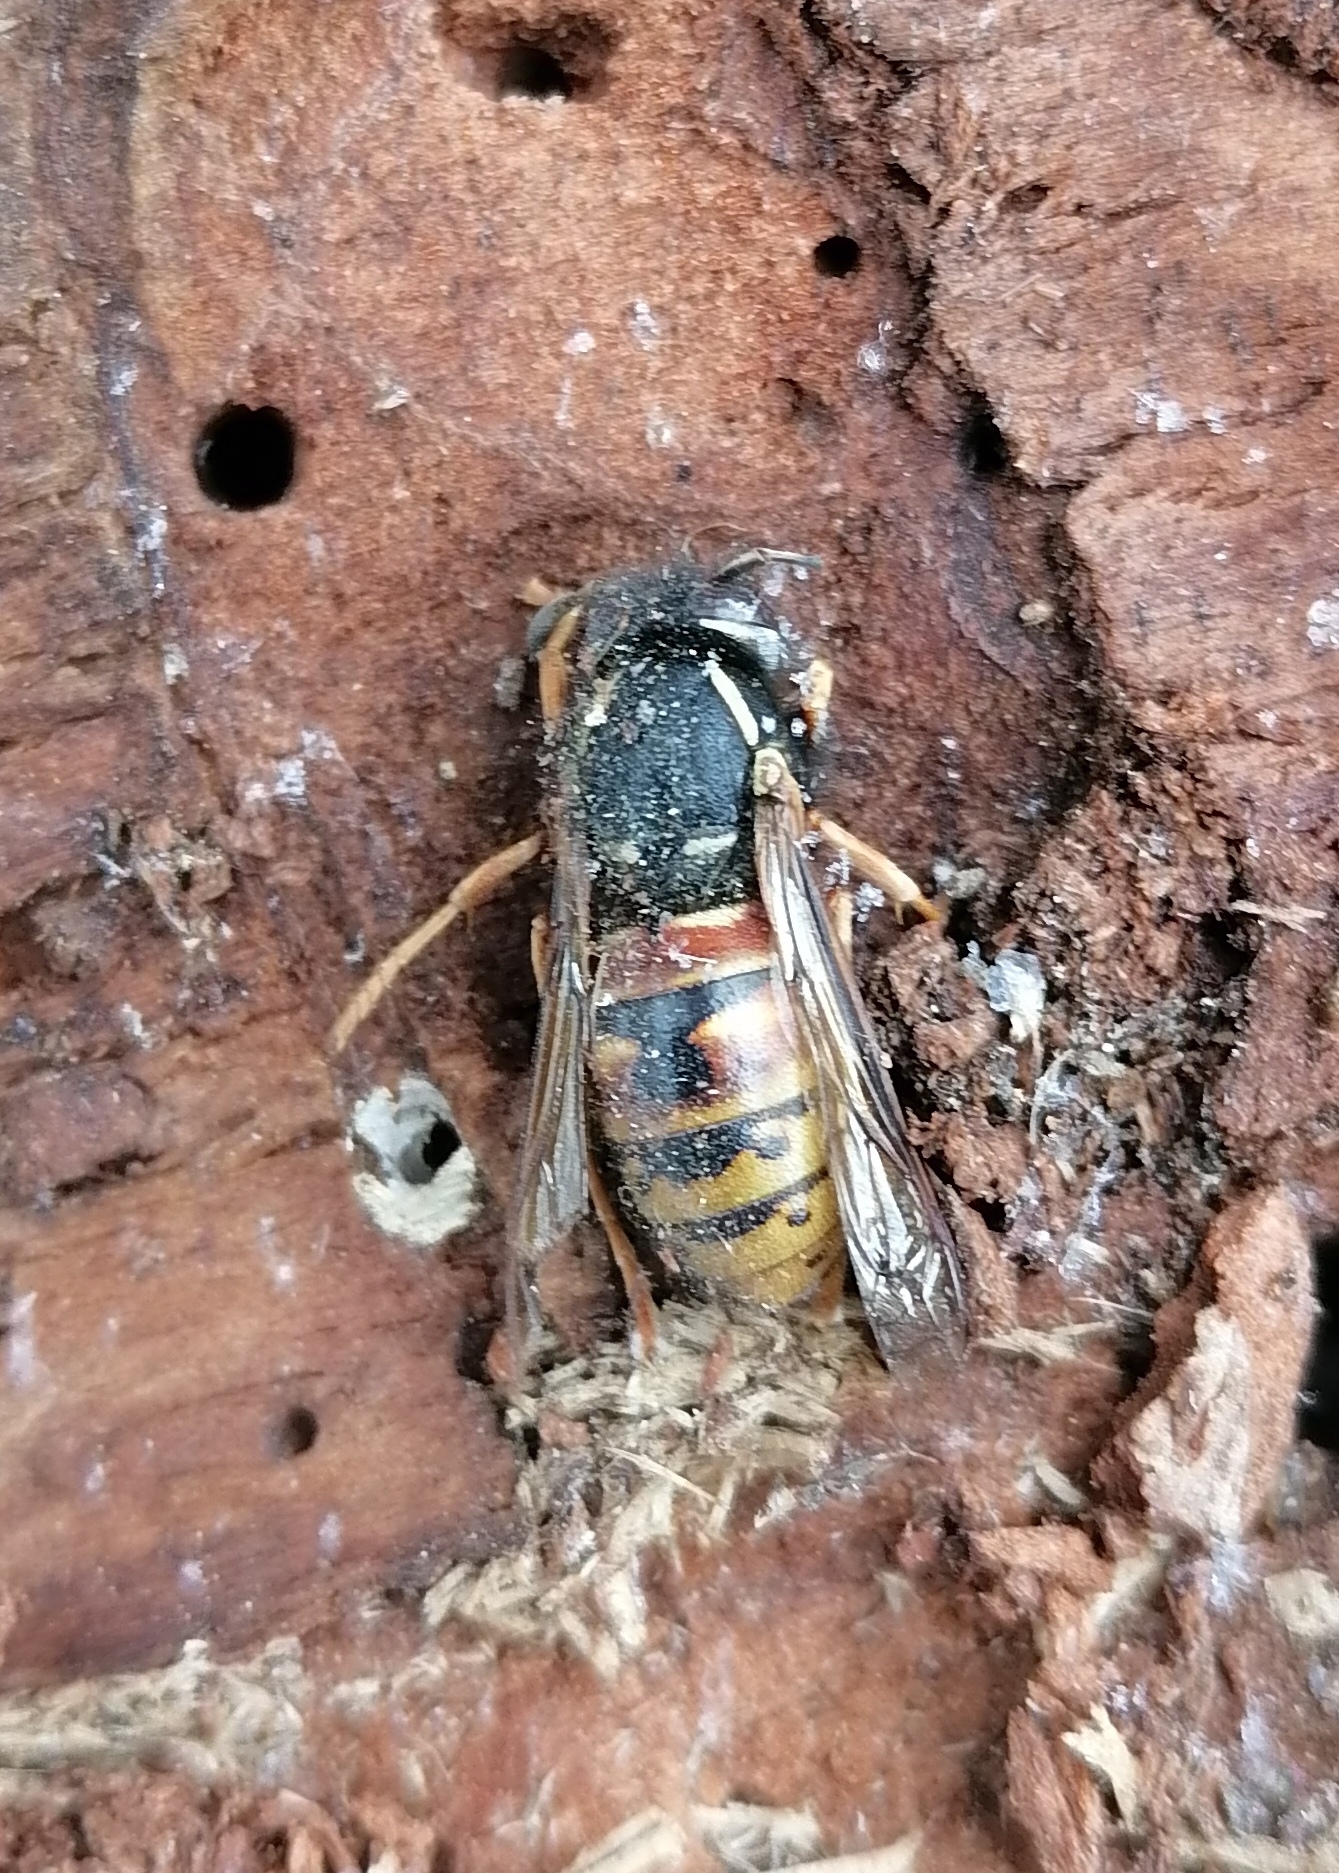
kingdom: Animalia
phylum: Arthropoda
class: Insecta
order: Hymenoptera
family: Vespidae
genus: Vespula
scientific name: Vespula rufa
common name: Red wasp
